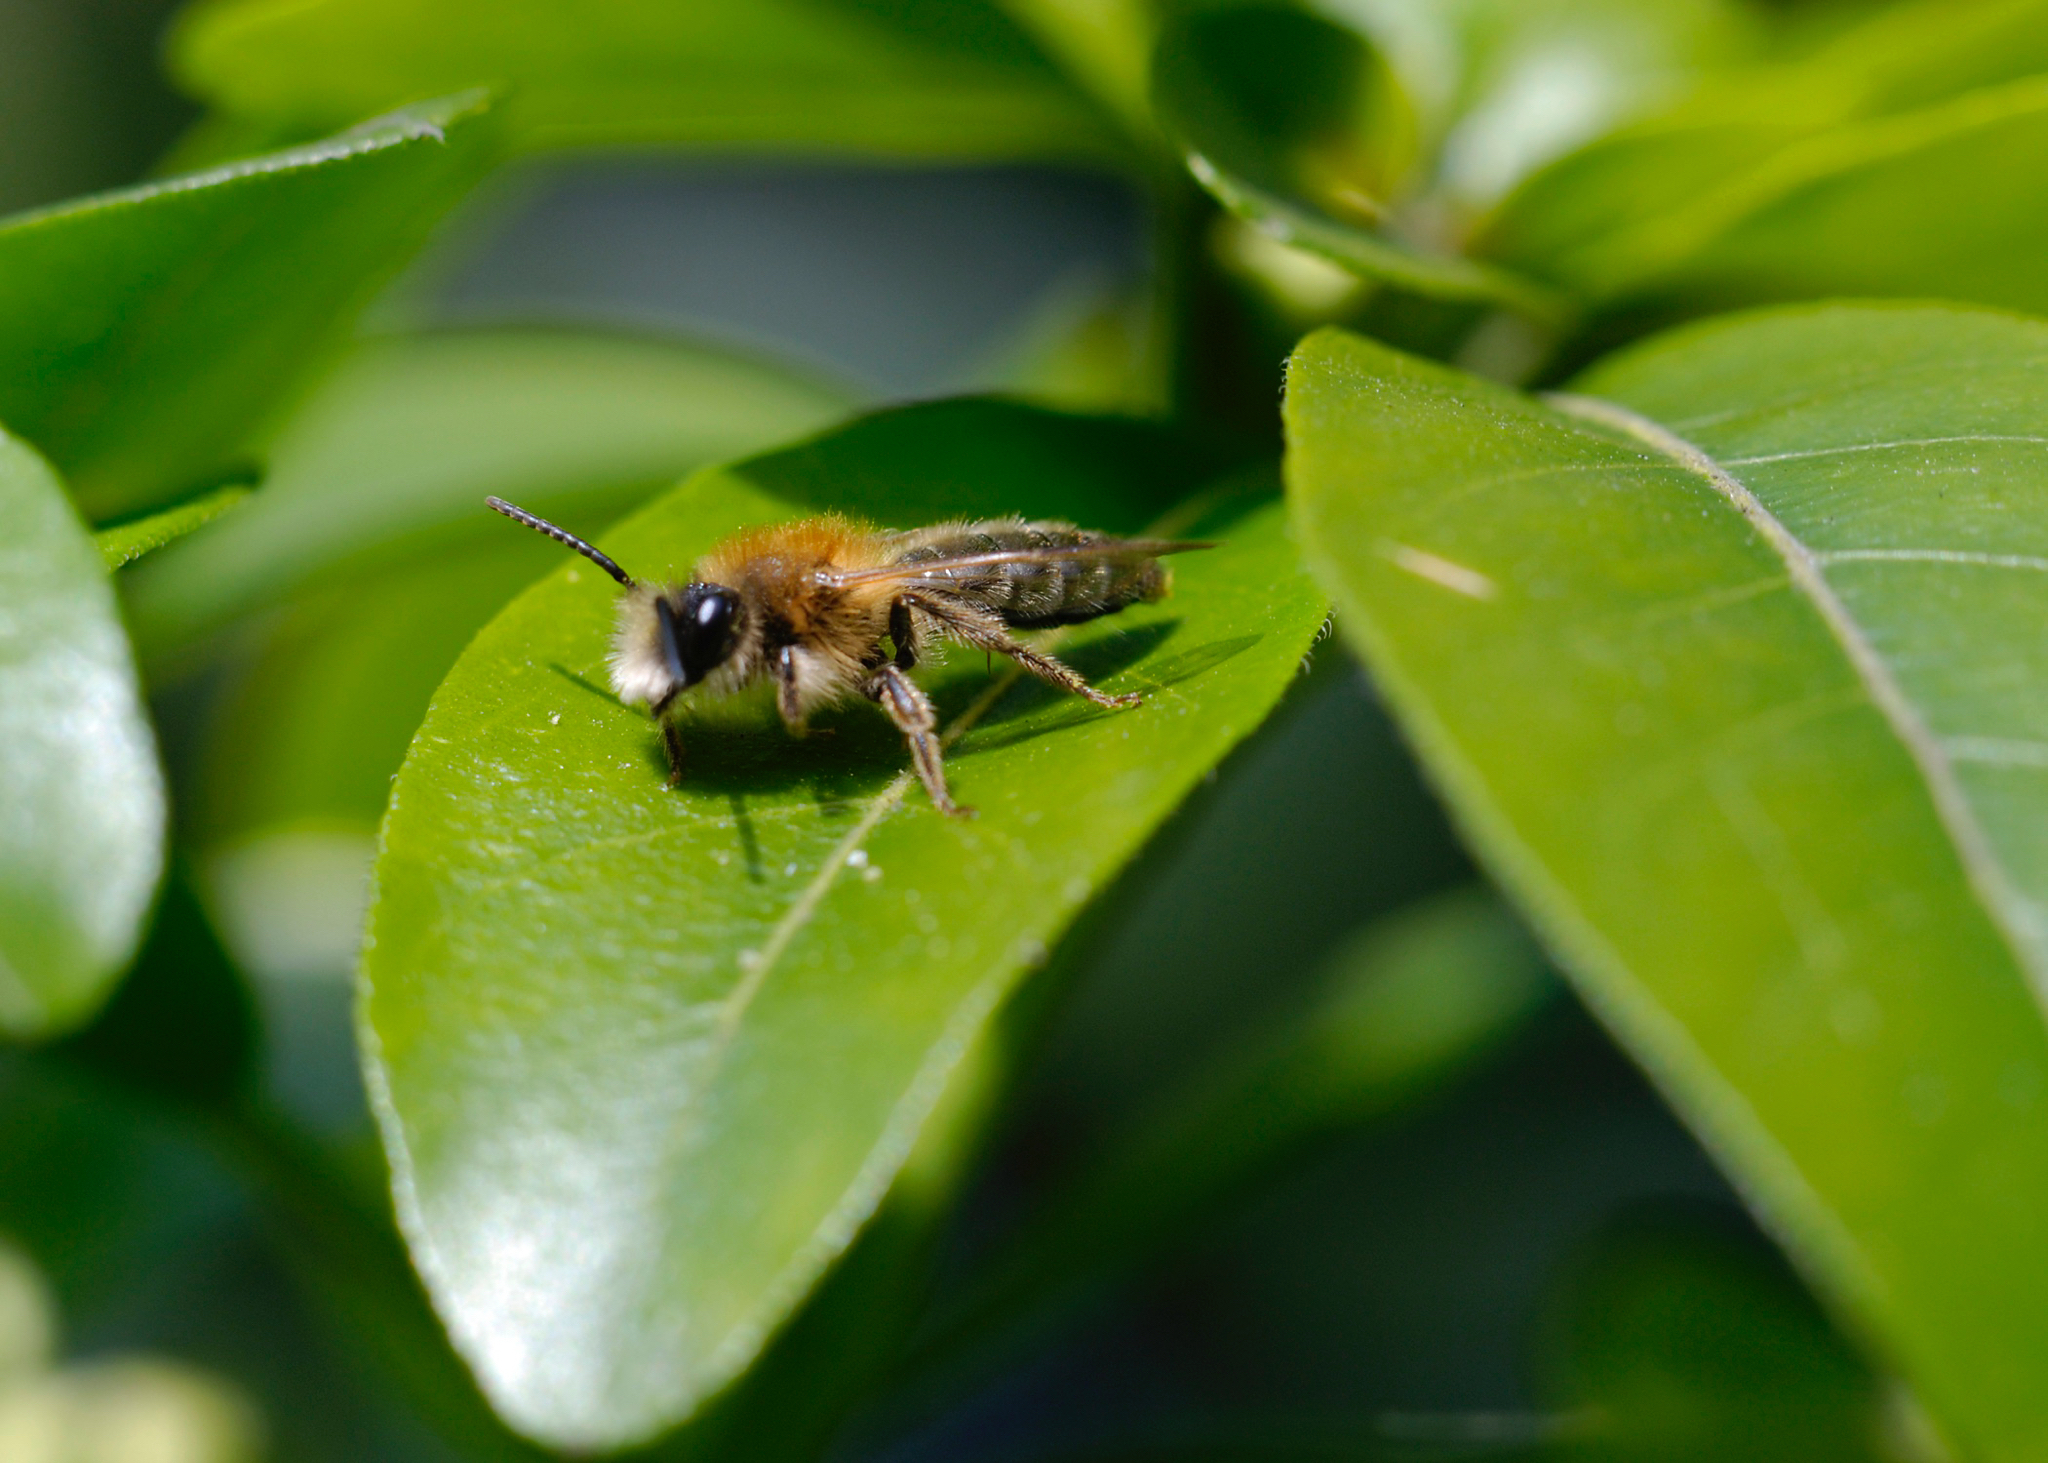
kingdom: Animalia
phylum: Arthropoda
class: Insecta
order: Hymenoptera
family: Andrenidae
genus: Andrena
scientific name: Andrena haemorrhoa
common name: Early mining bee
